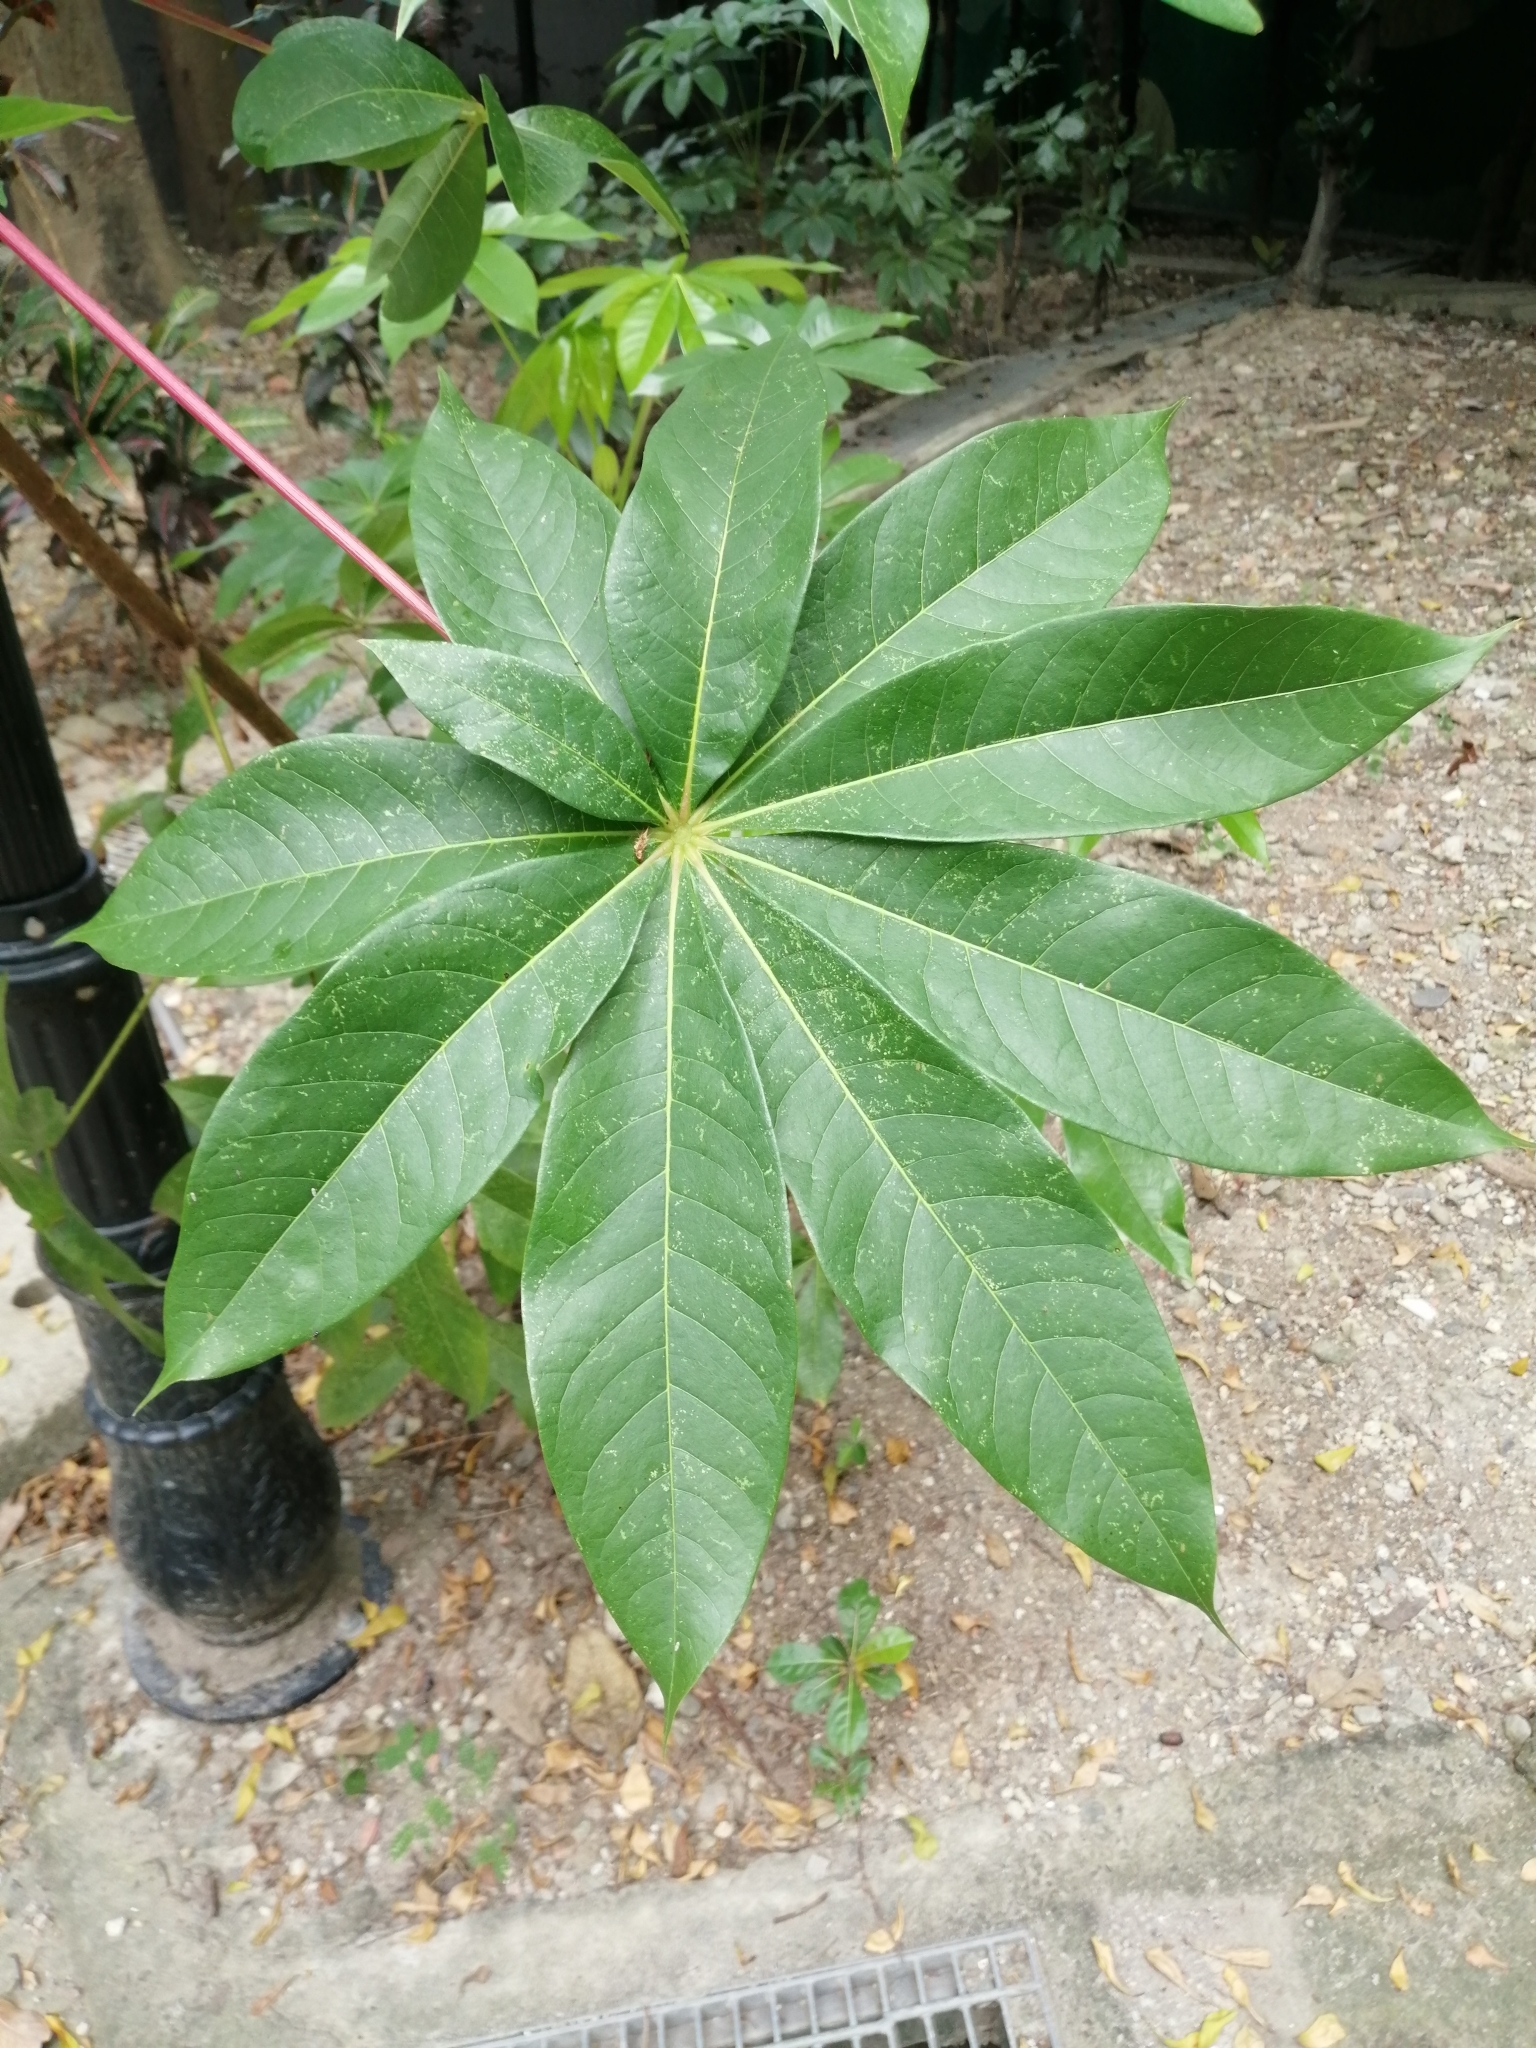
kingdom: Plantae
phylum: Tracheophyta
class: Magnoliopsida
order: Malpighiales
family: Euphorbiaceae
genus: Manihot
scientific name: Manihot esculenta
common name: Cassava
